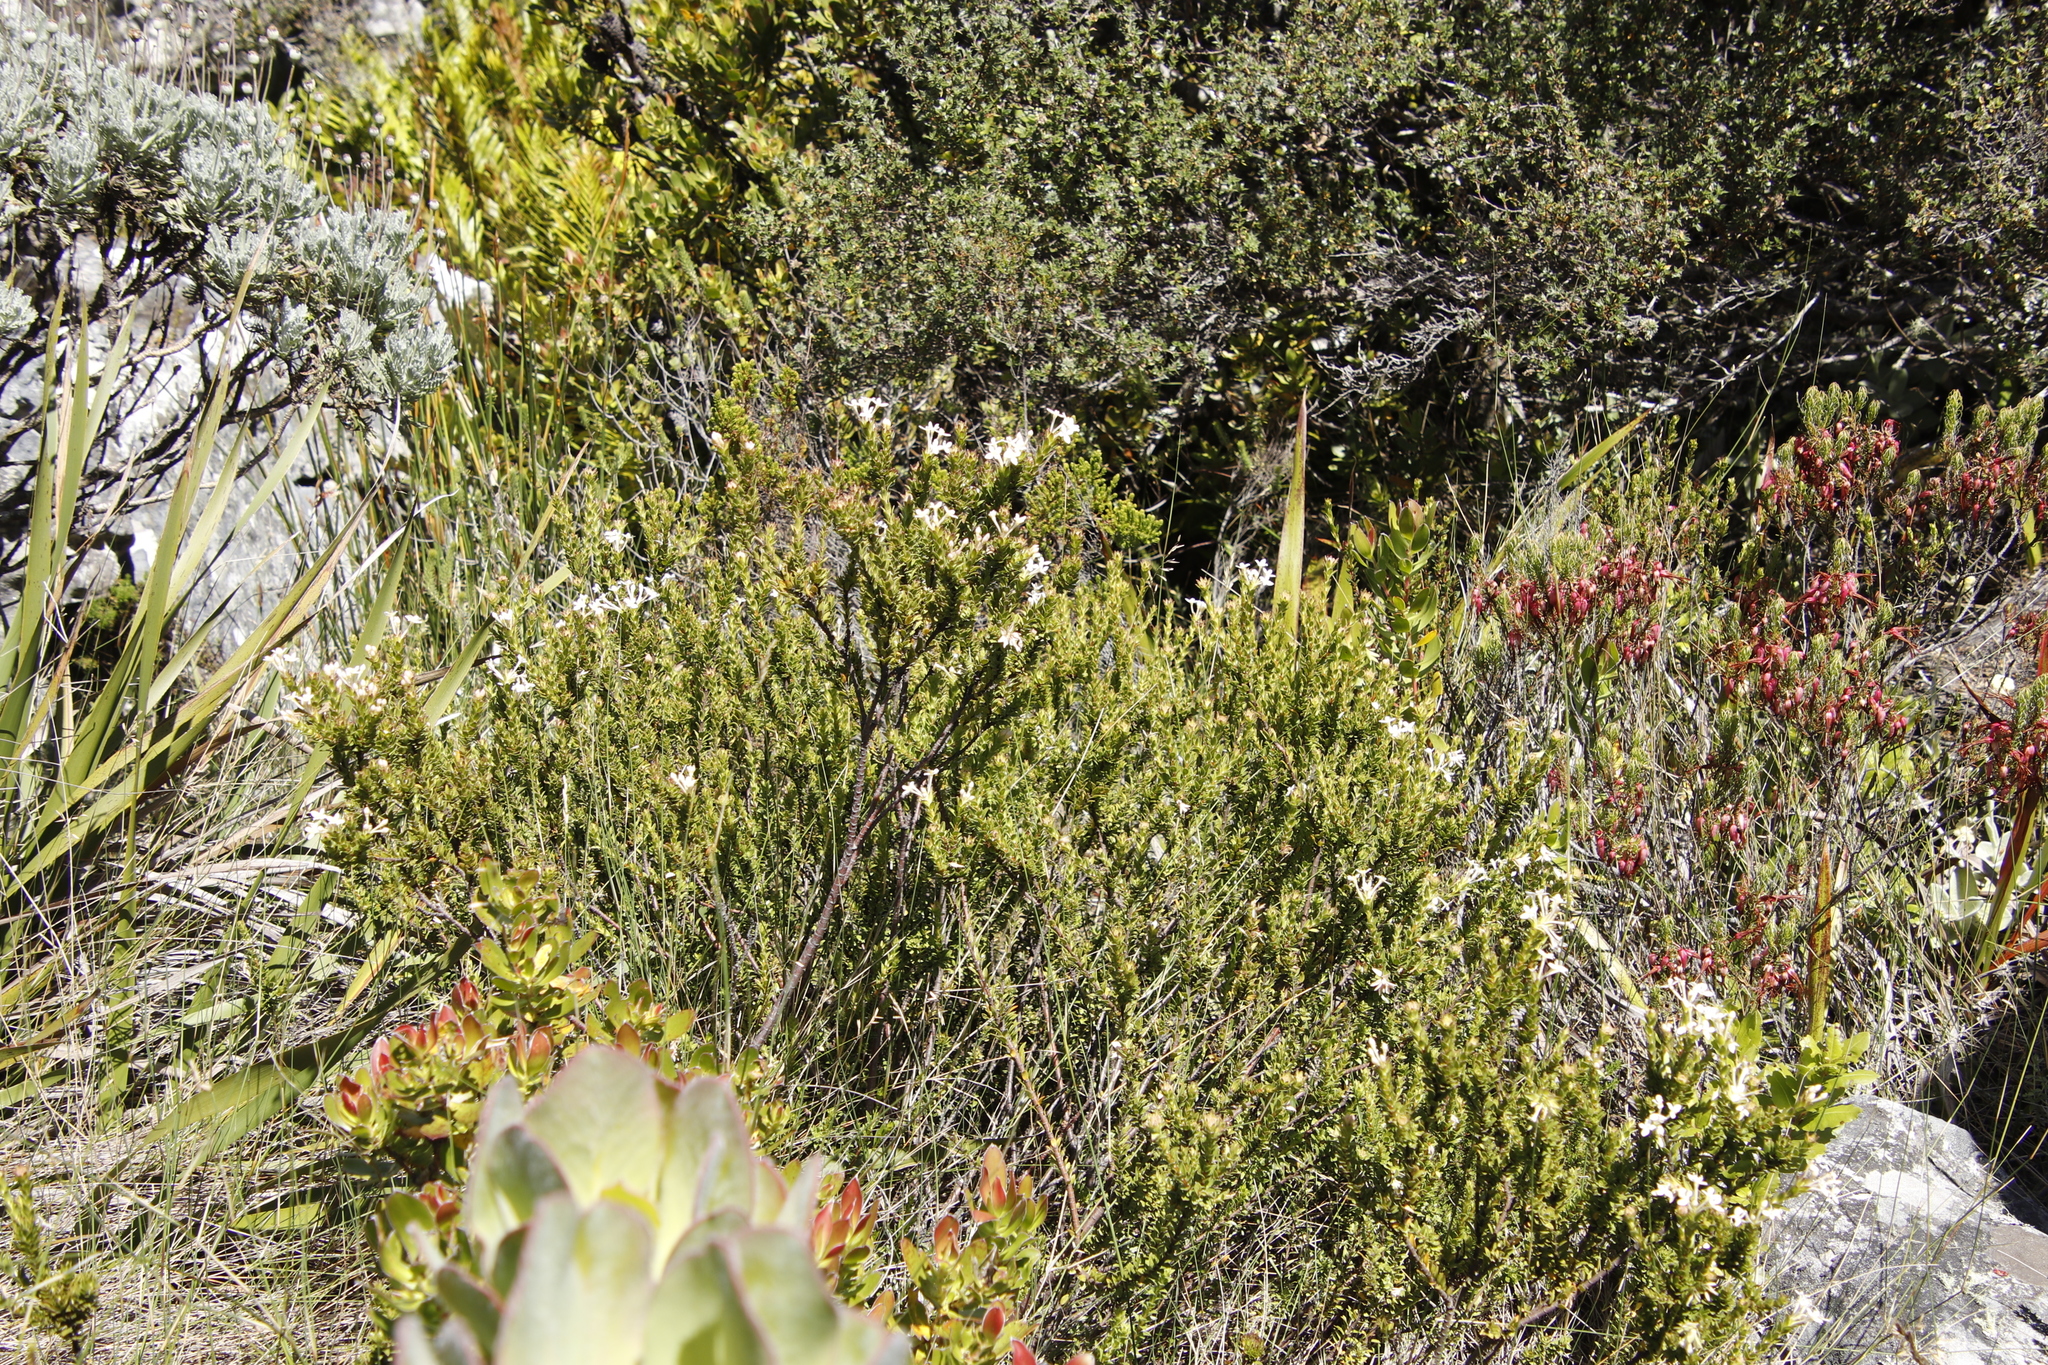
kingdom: Plantae
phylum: Tracheophyta
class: Magnoliopsida
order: Malvales
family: Thymelaeaceae
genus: Gnidia
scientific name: Gnidia tomentosa
